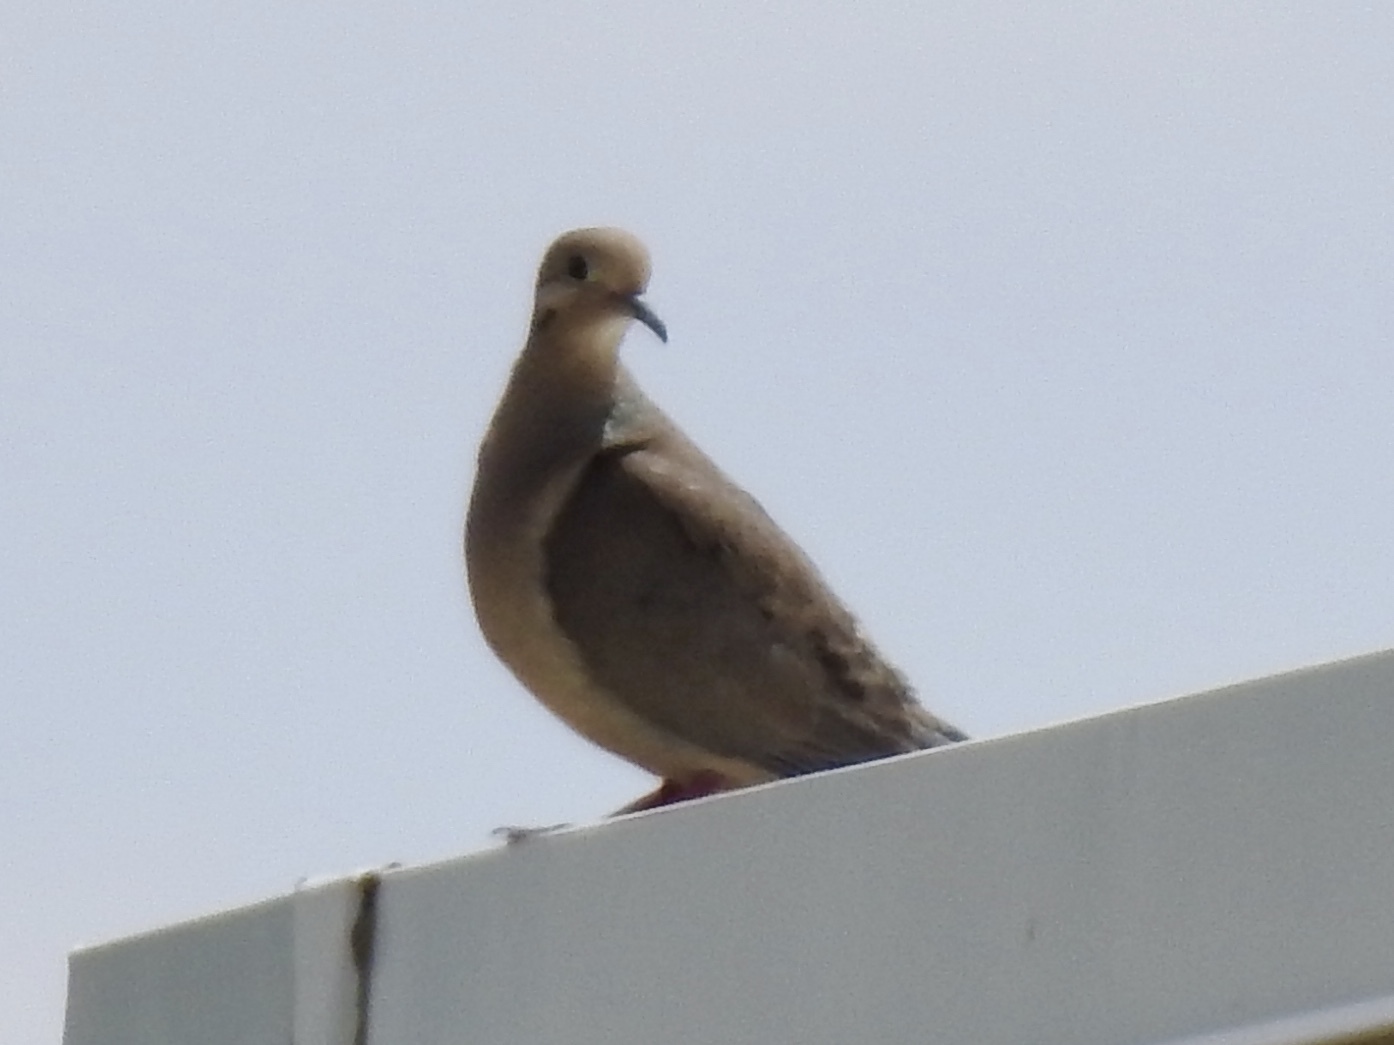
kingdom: Animalia
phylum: Chordata
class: Aves
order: Columbiformes
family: Columbidae
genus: Zenaida
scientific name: Zenaida macroura
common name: Mourning dove
